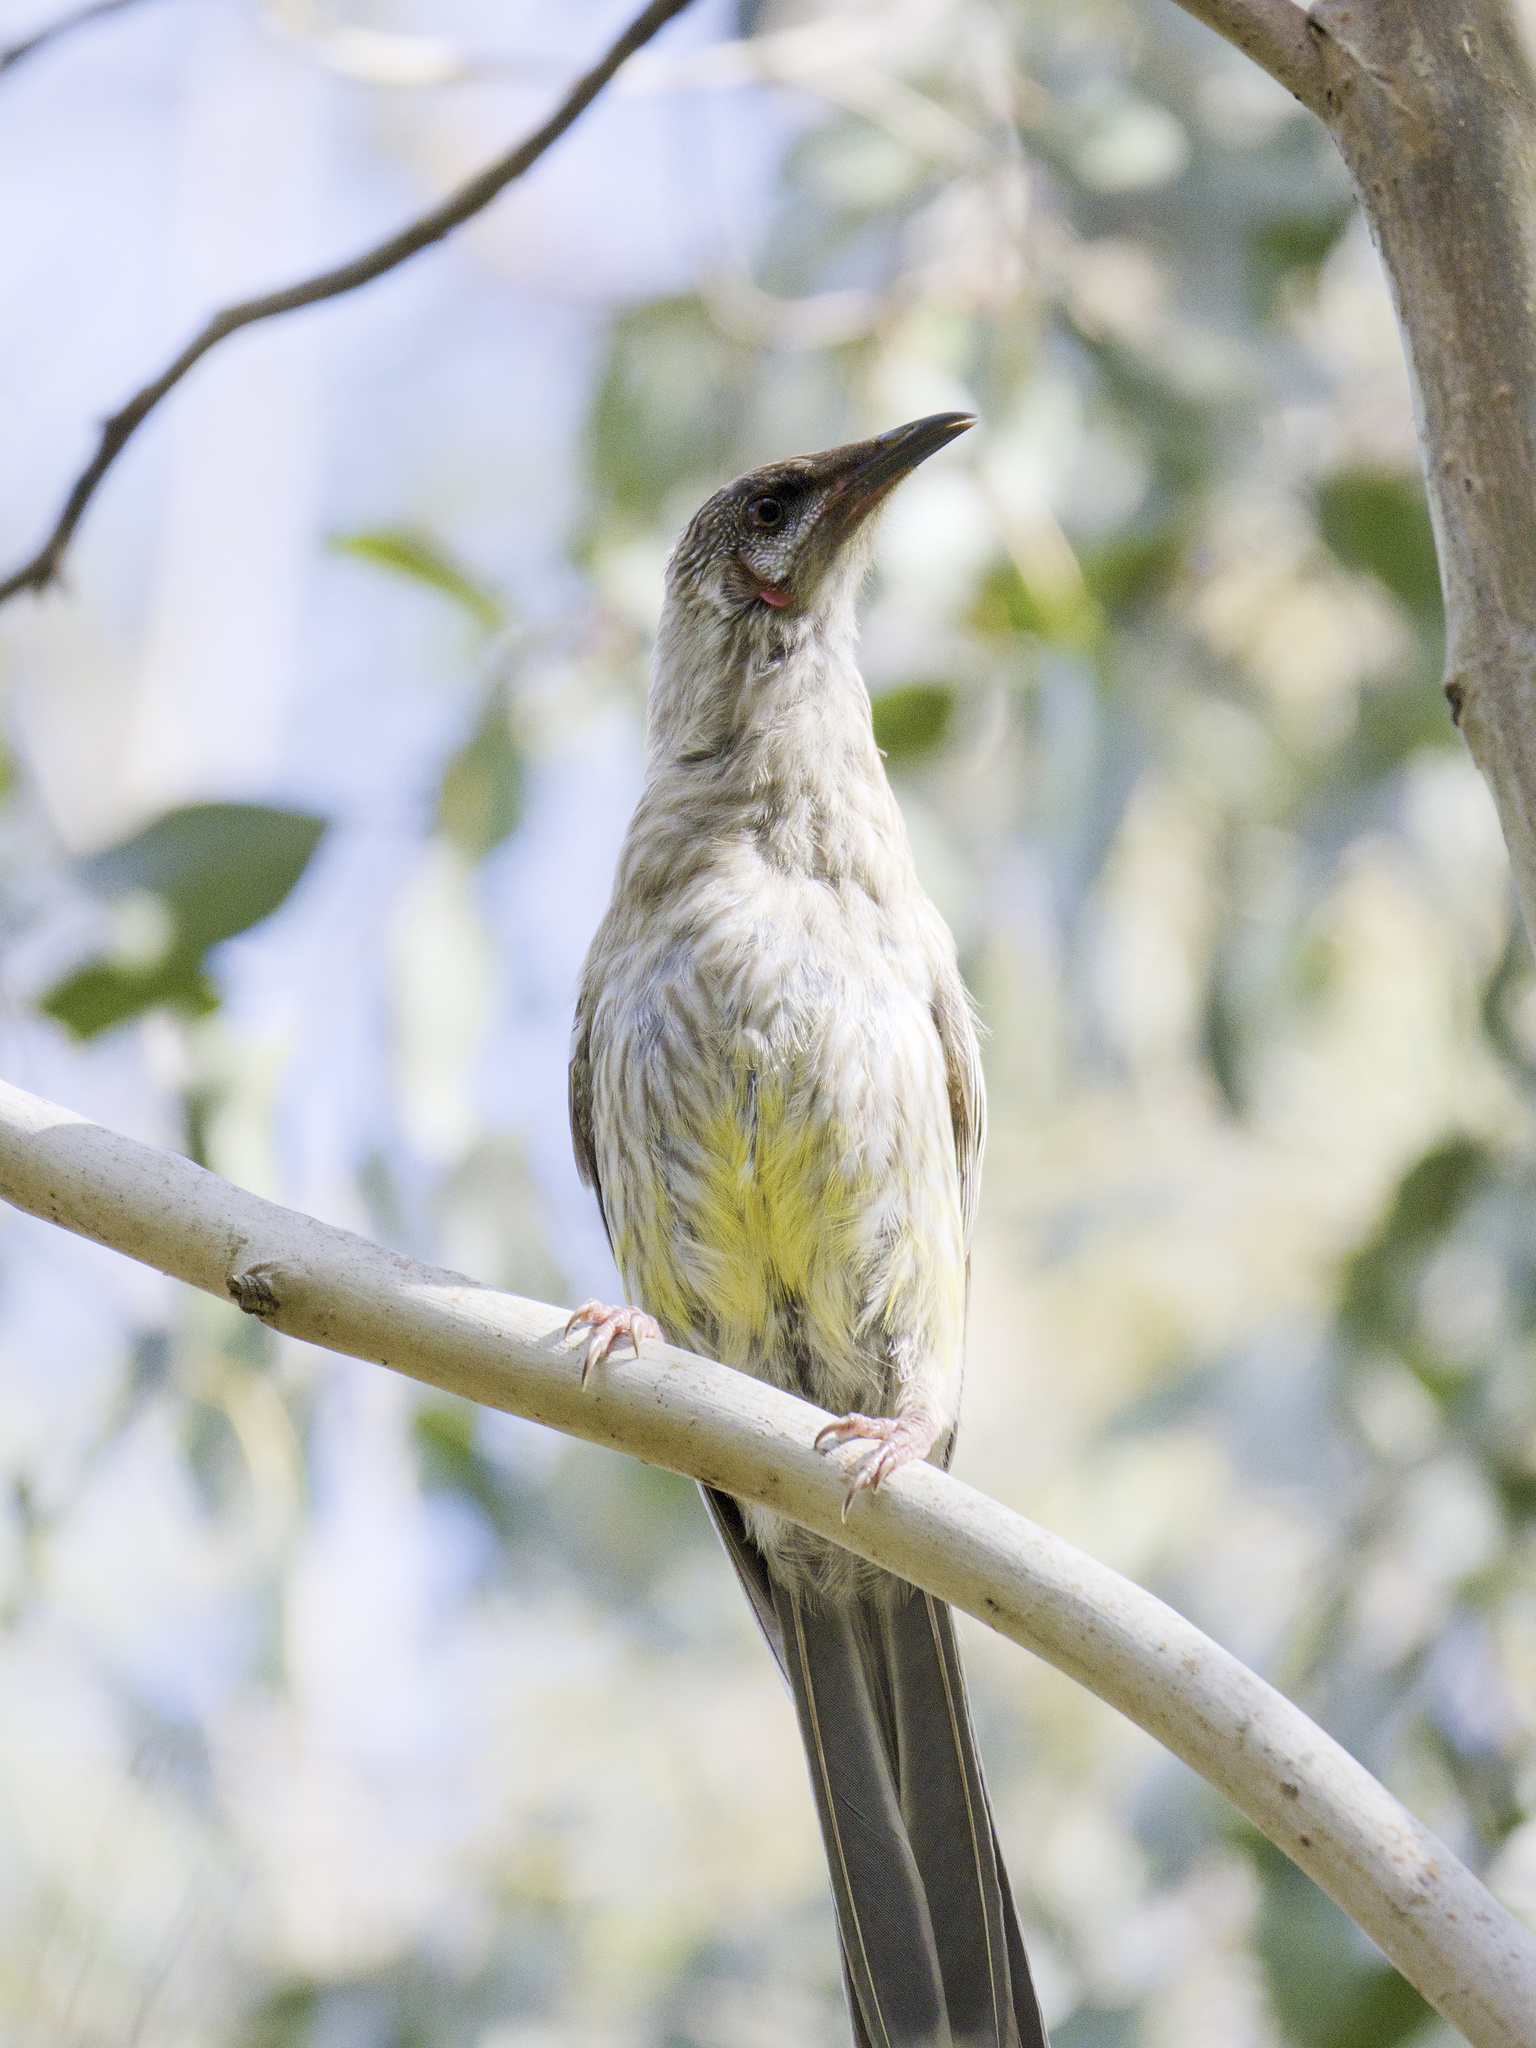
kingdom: Animalia
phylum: Chordata
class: Aves
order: Passeriformes
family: Meliphagidae
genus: Anthochaera
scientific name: Anthochaera carunculata
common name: Red wattlebird
